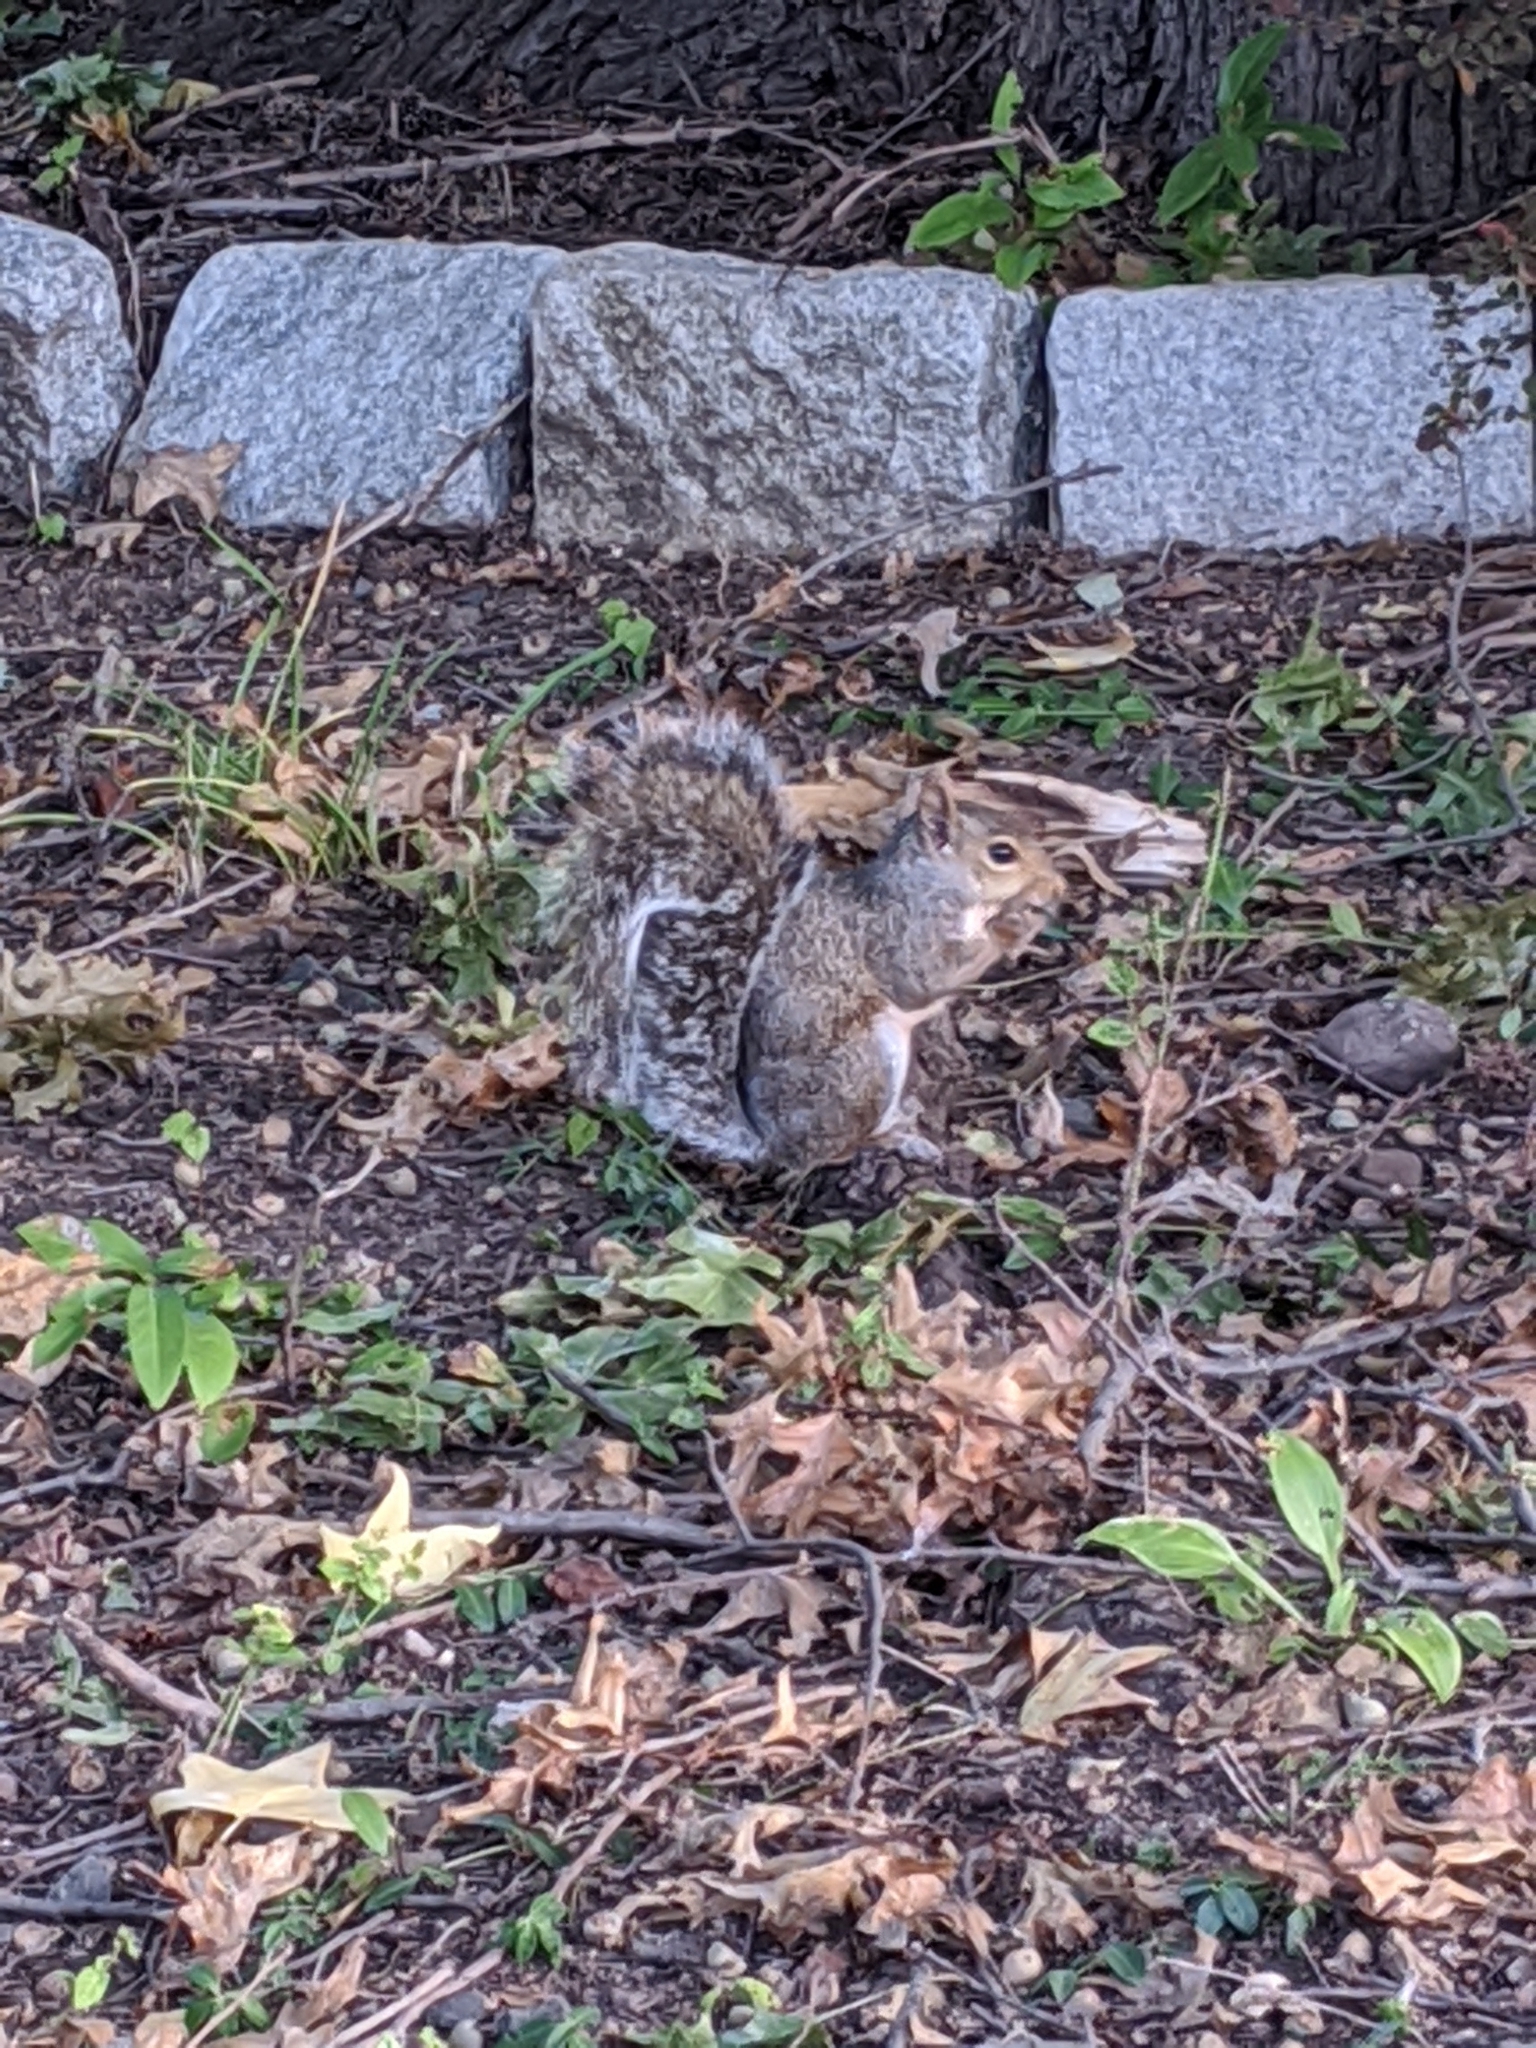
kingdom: Animalia
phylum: Chordata
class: Mammalia
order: Rodentia
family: Sciuridae
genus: Sciurus
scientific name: Sciurus carolinensis
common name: Eastern gray squirrel
